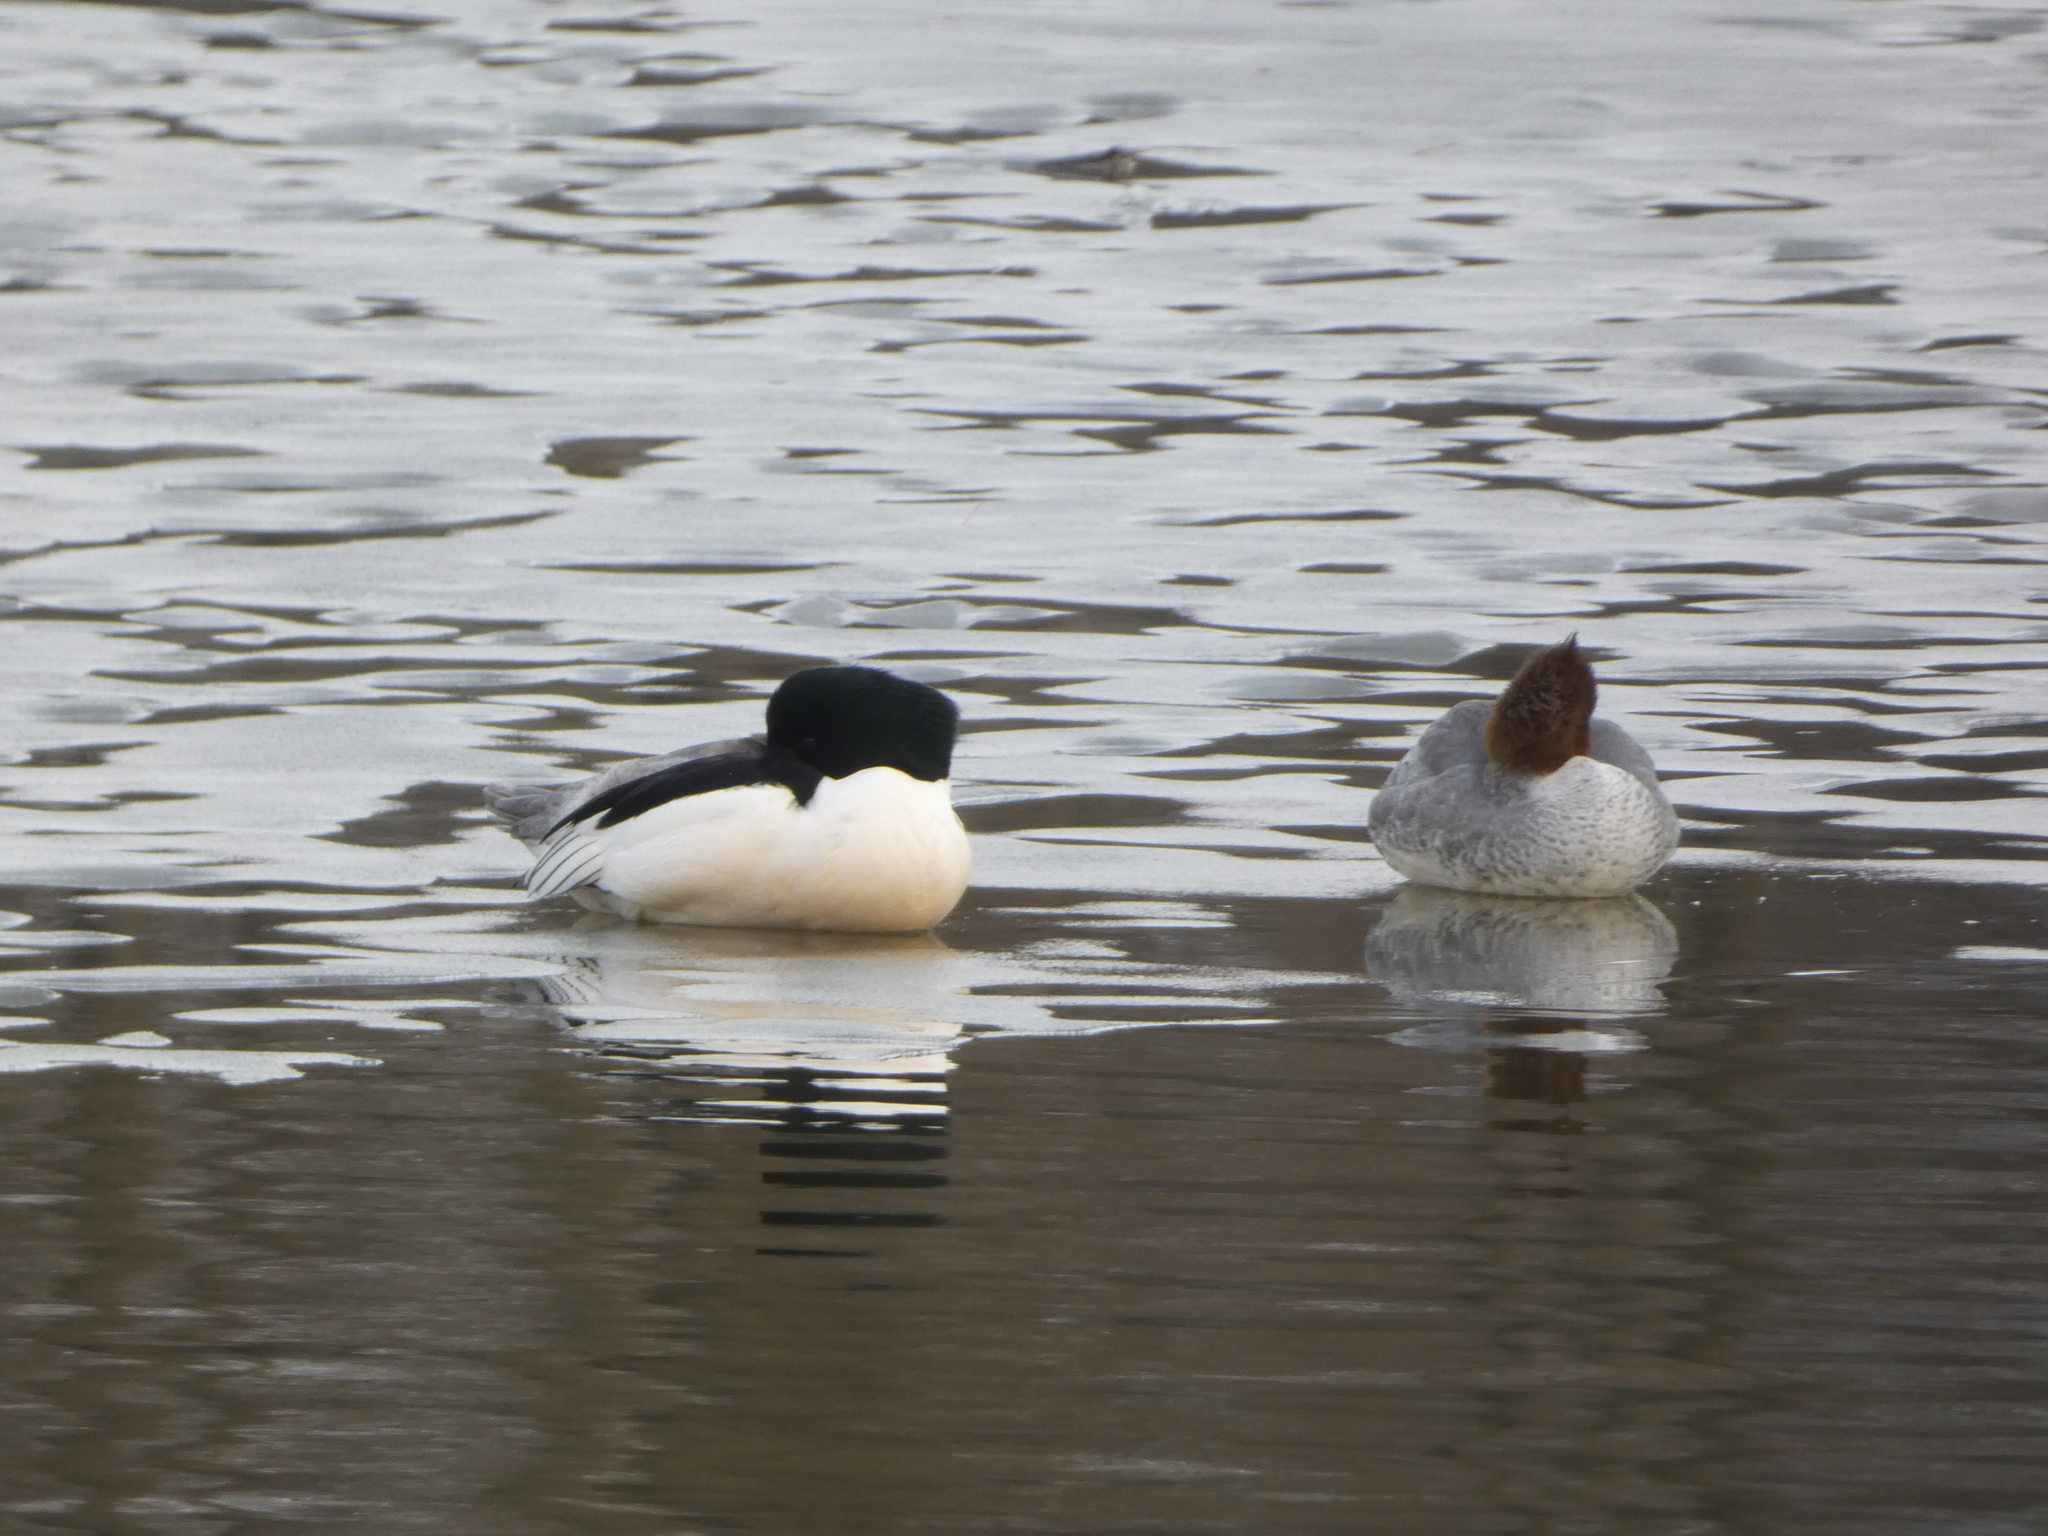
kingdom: Animalia
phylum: Chordata
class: Aves
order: Anseriformes
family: Anatidae
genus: Mergus
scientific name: Mergus merganser
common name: Common merganser
